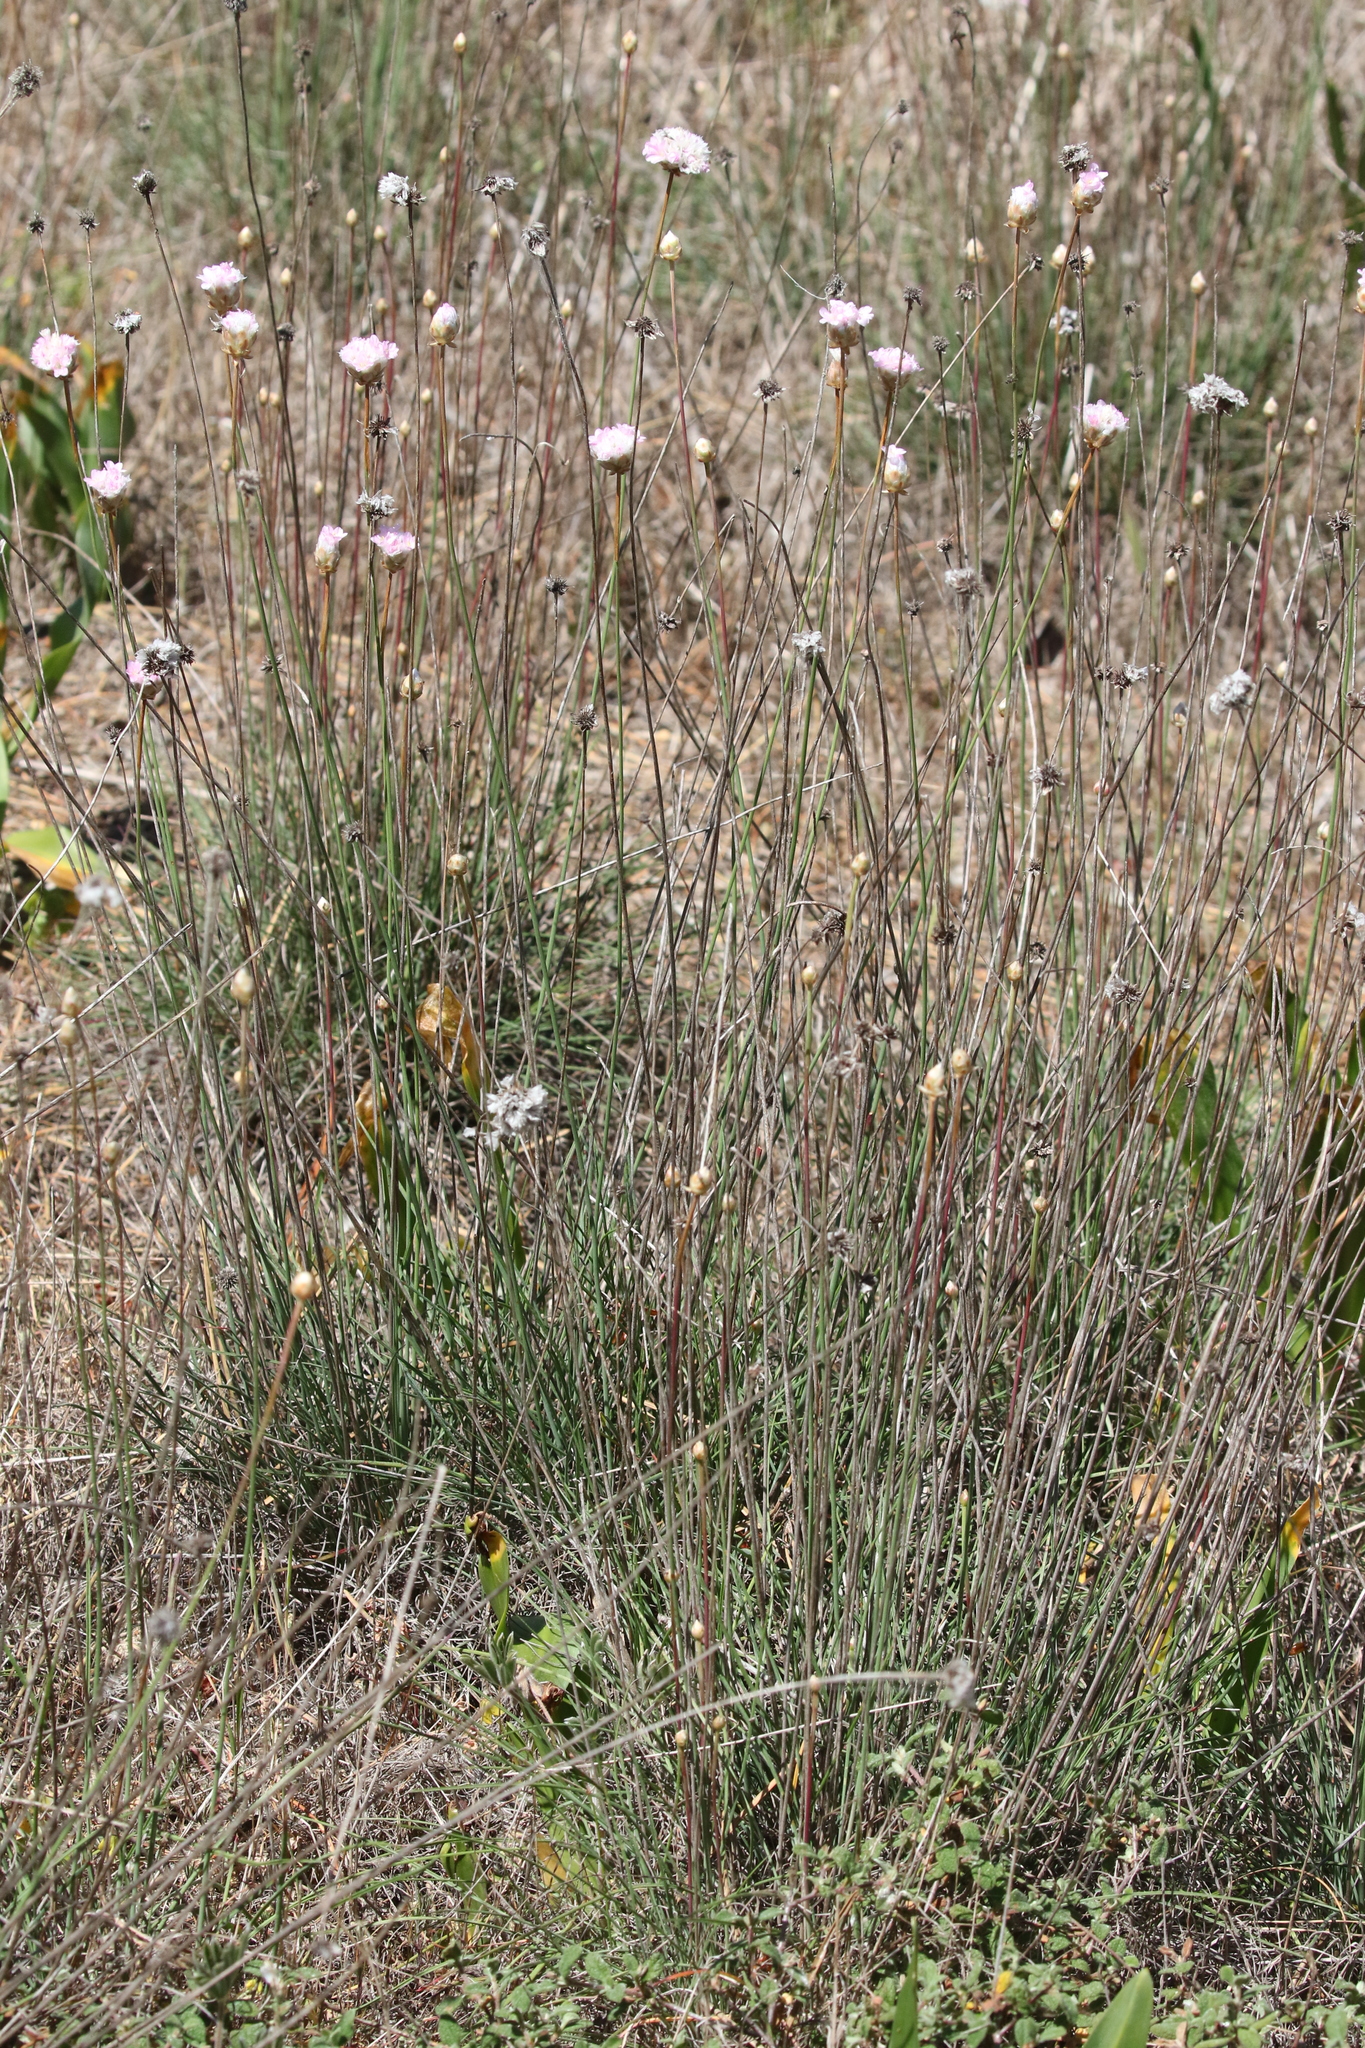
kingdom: Plantae
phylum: Tracheophyta
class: Magnoliopsida
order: Caryophyllales
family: Plumbaginaceae
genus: Armeria
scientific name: Armeria macrophylla
